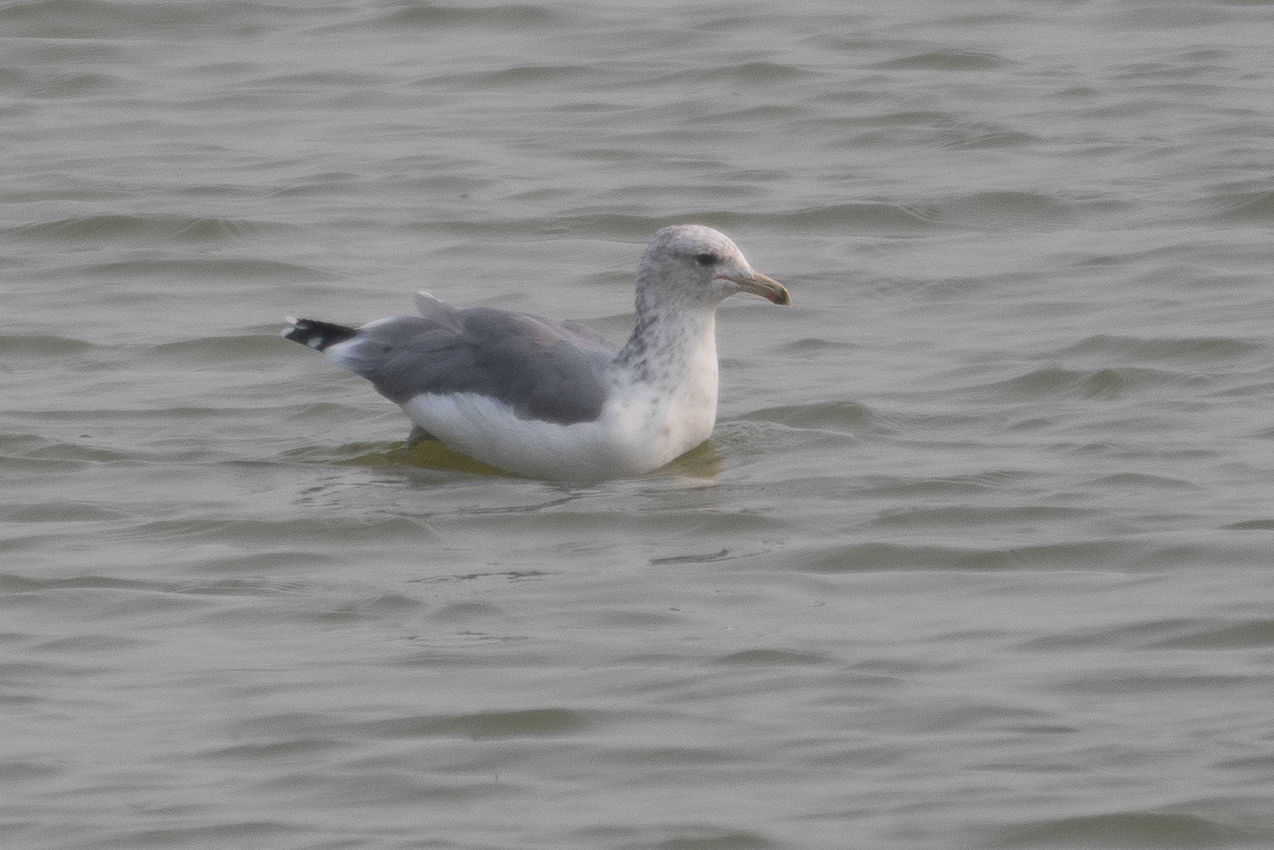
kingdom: Animalia
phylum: Chordata
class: Aves
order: Charadriiformes
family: Laridae
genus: Larus
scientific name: Larus californicus
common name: California gull
